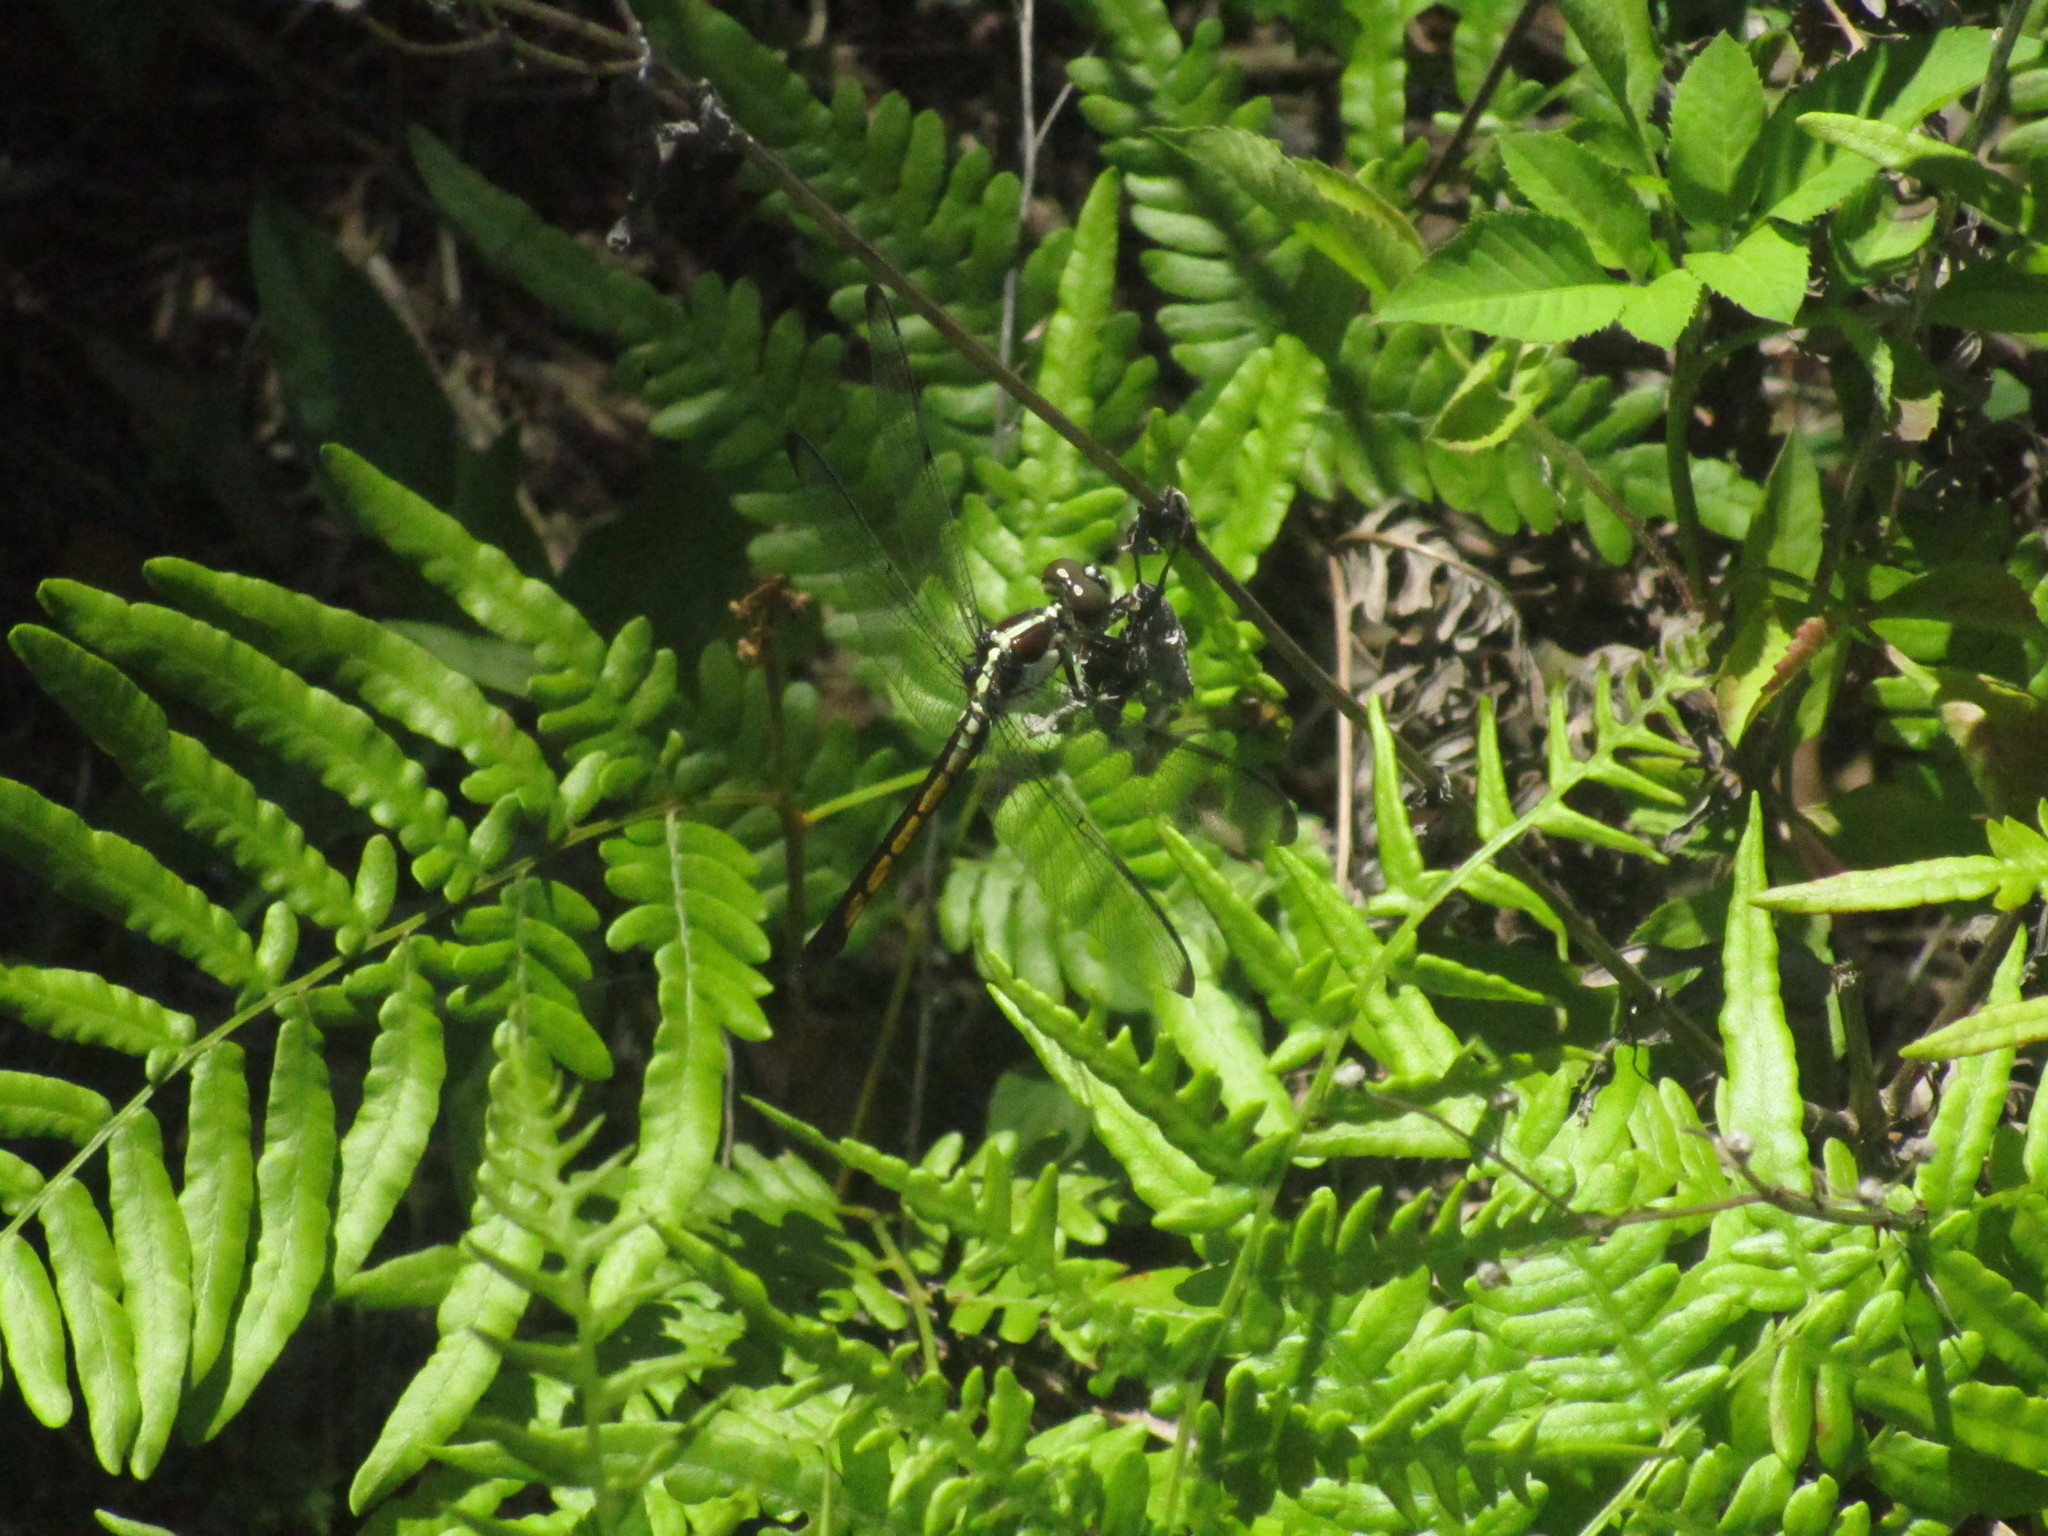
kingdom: Animalia
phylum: Arthropoda
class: Insecta
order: Odonata
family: Libellulidae
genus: Libellula
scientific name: Libellula incesta
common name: Slaty skimmer
